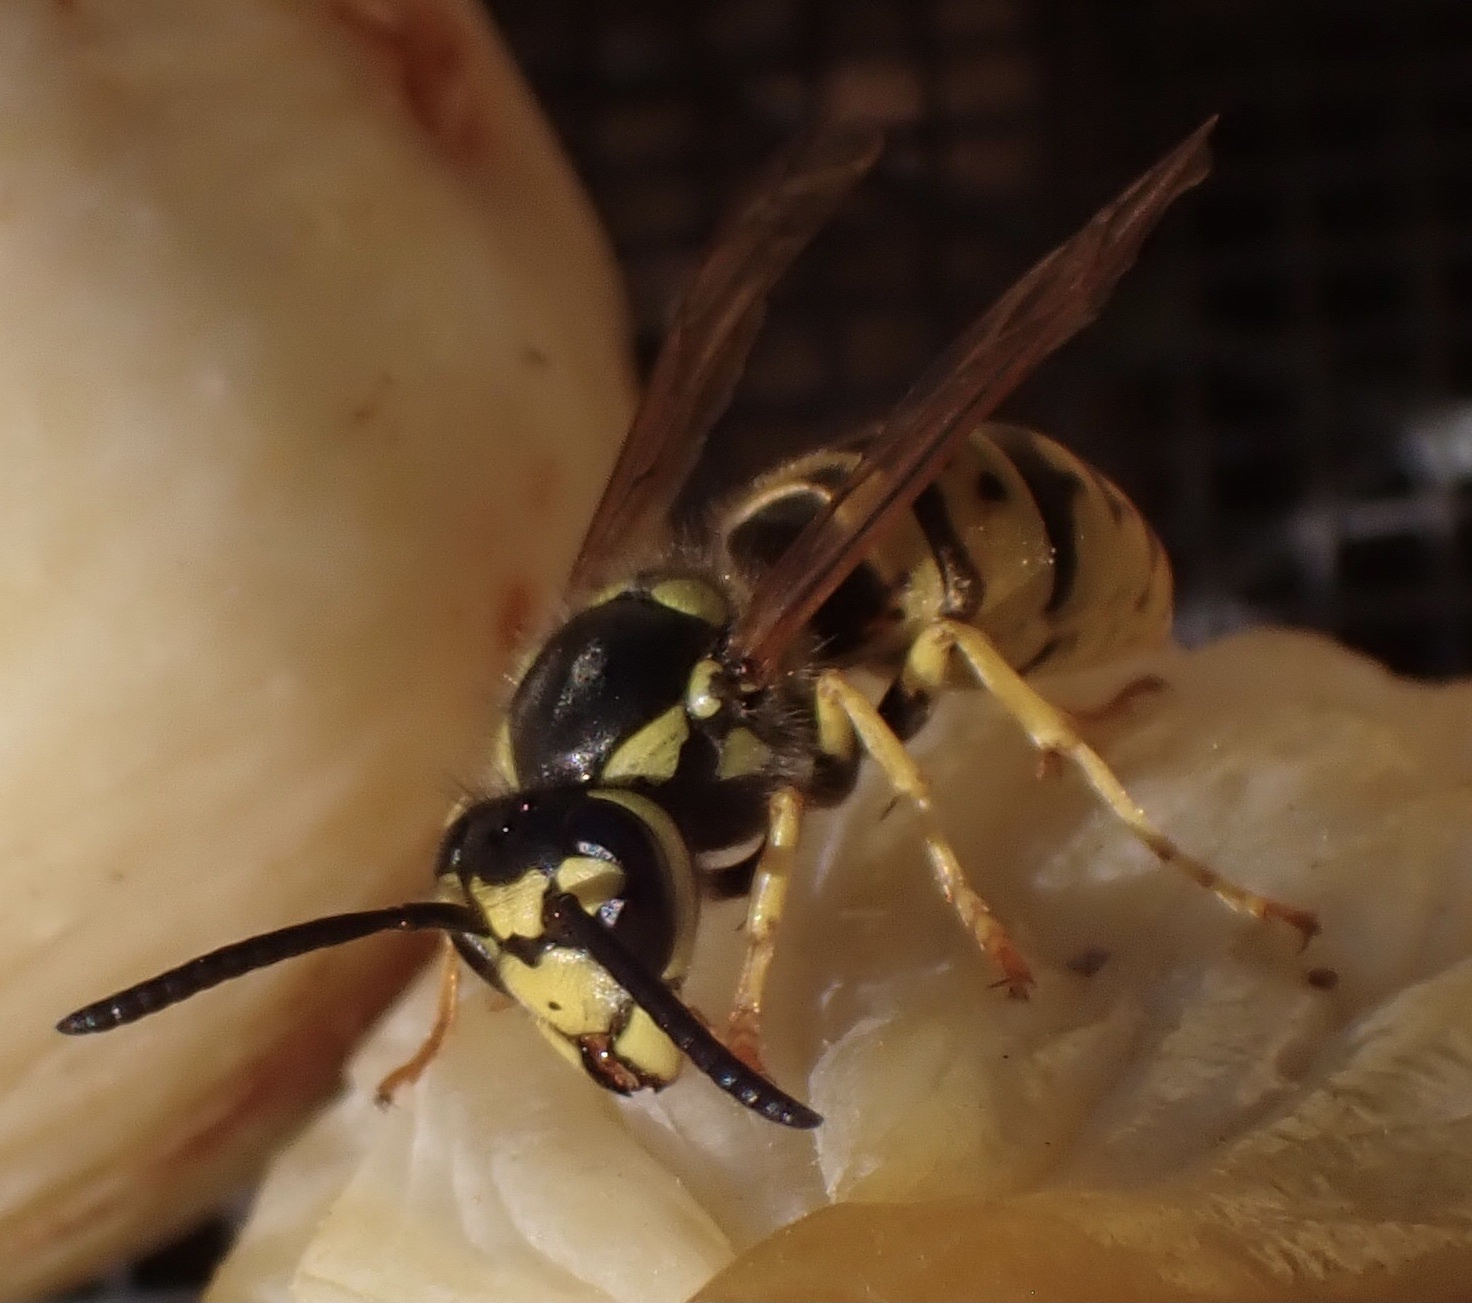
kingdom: Animalia
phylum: Arthropoda
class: Insecta
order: Hymenoptera
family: Vespidae
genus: Vespula
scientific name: Vespula germanica
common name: German wasp
